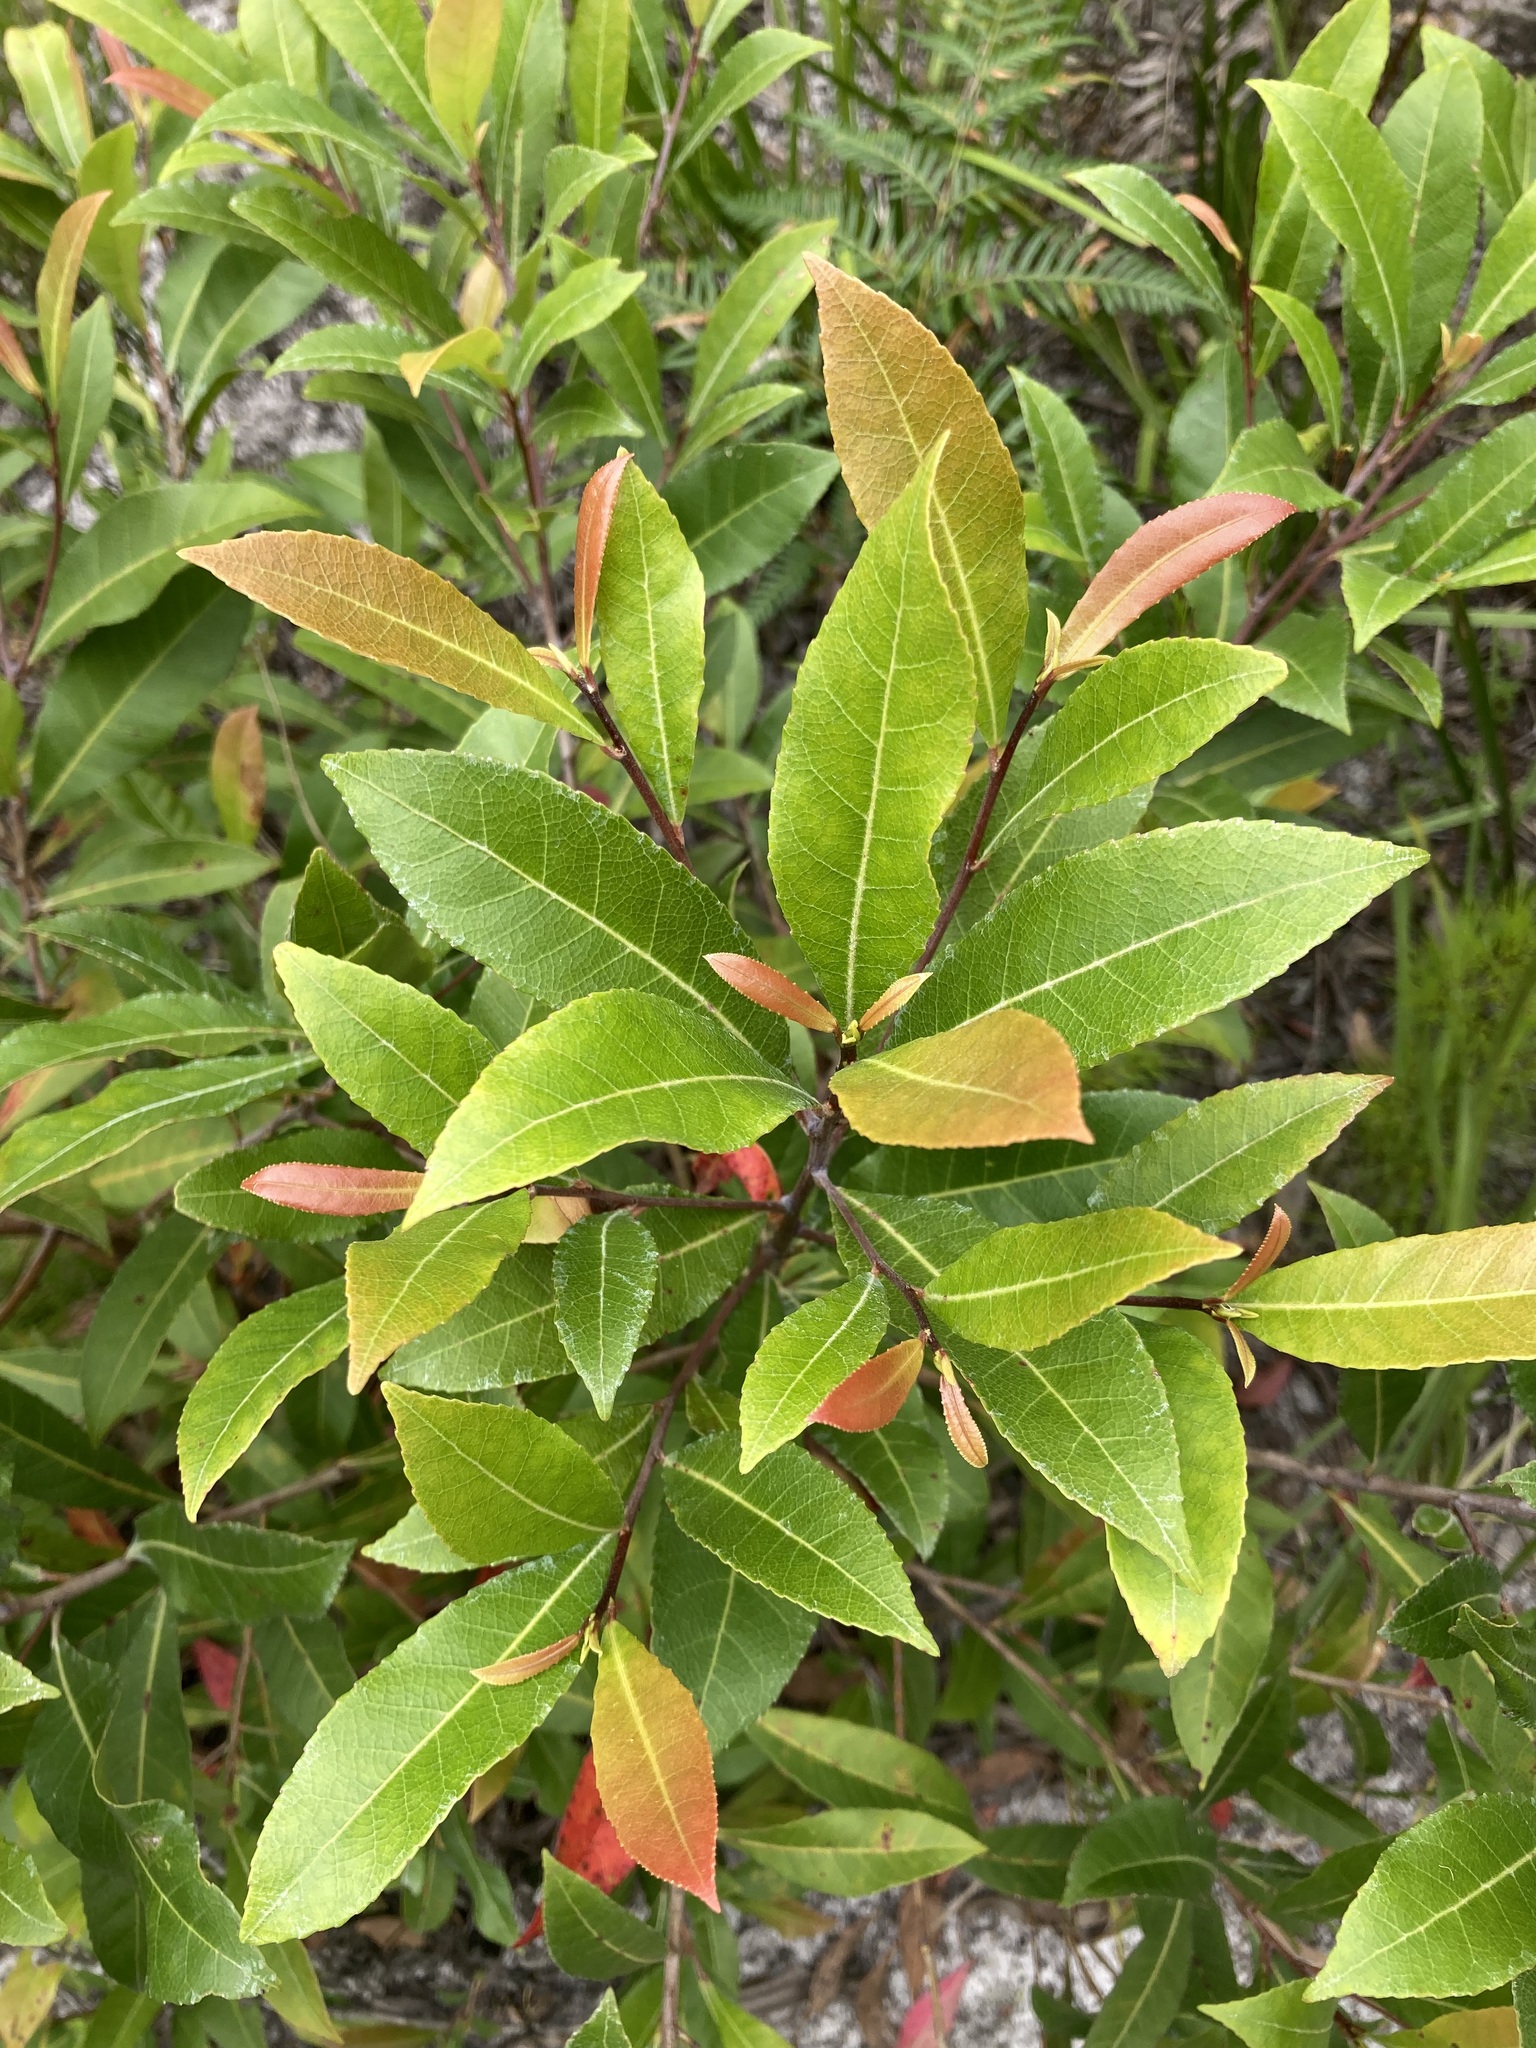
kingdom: Plantae
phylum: Tracheophyta
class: Magnoliopsida
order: Oxalidales
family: Elaeocarpaceae
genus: Elaeocarpus
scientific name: Elaeocarpus reticulatus
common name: Ash quandong
